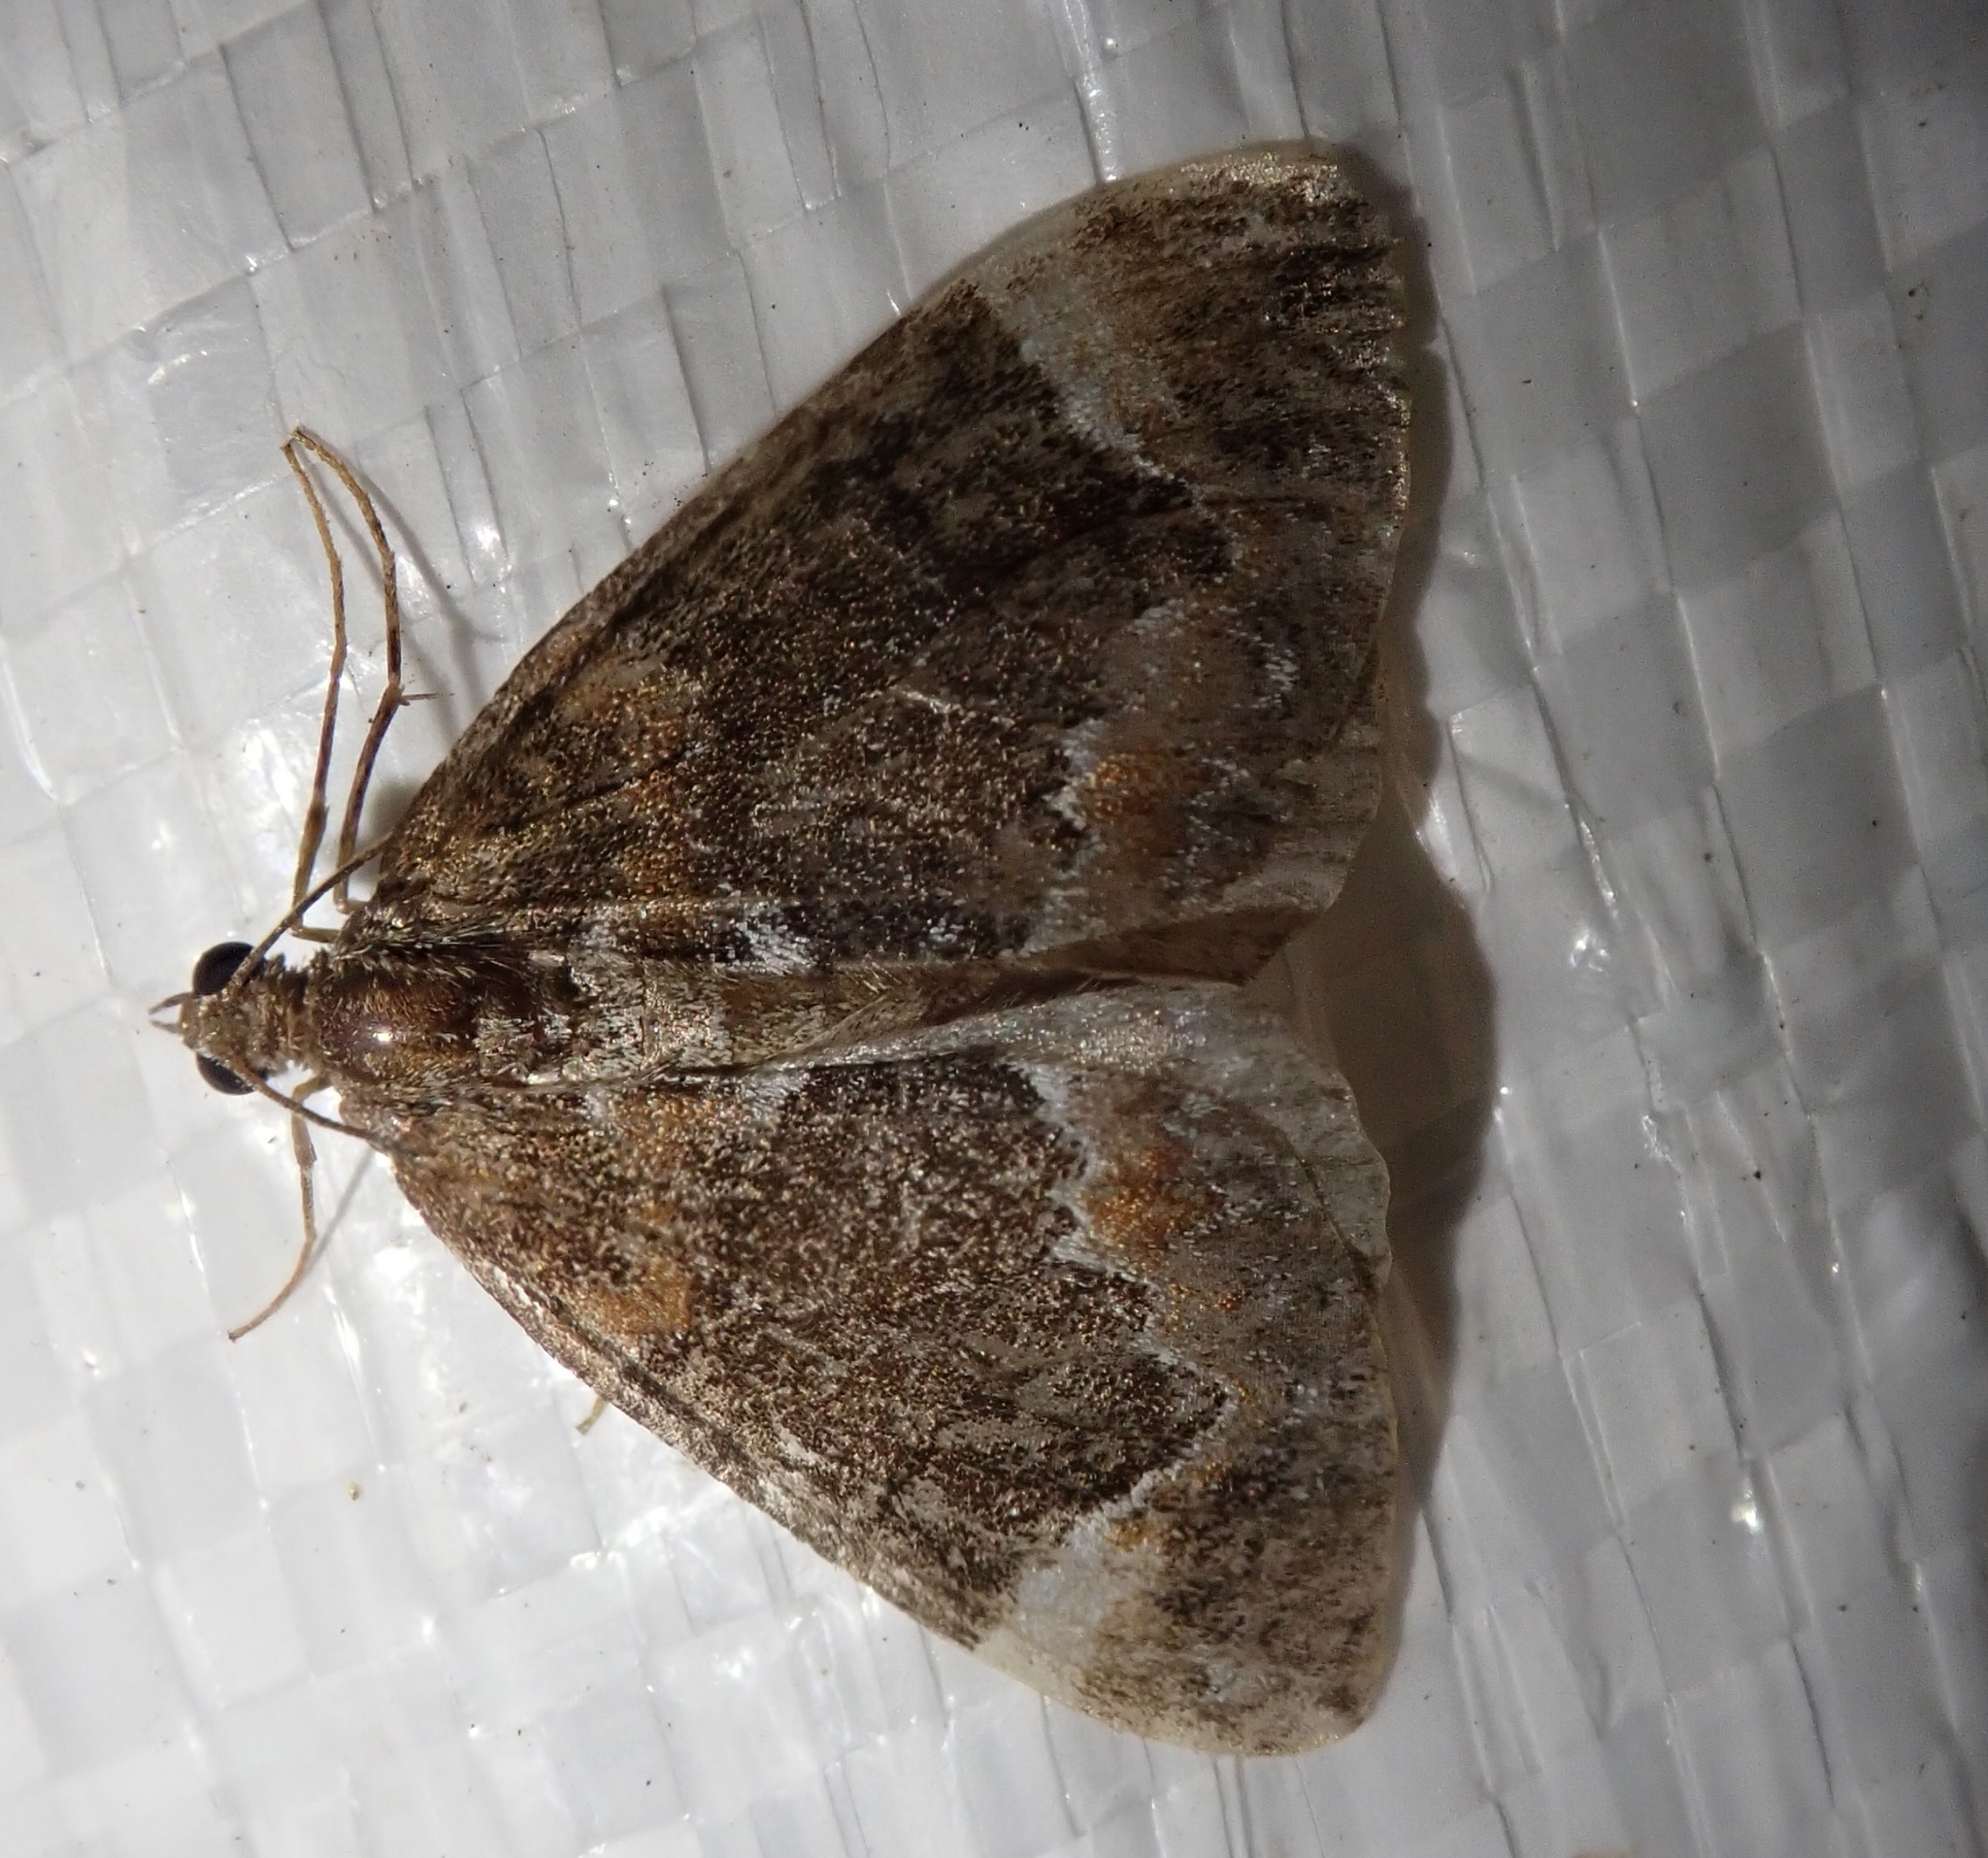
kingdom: Animalia
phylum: Arthropoda
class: Insecta
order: Lepidoptera
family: Geometridae
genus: Dysstroma
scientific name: Dysstroma truncata
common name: Common marbled carpet
